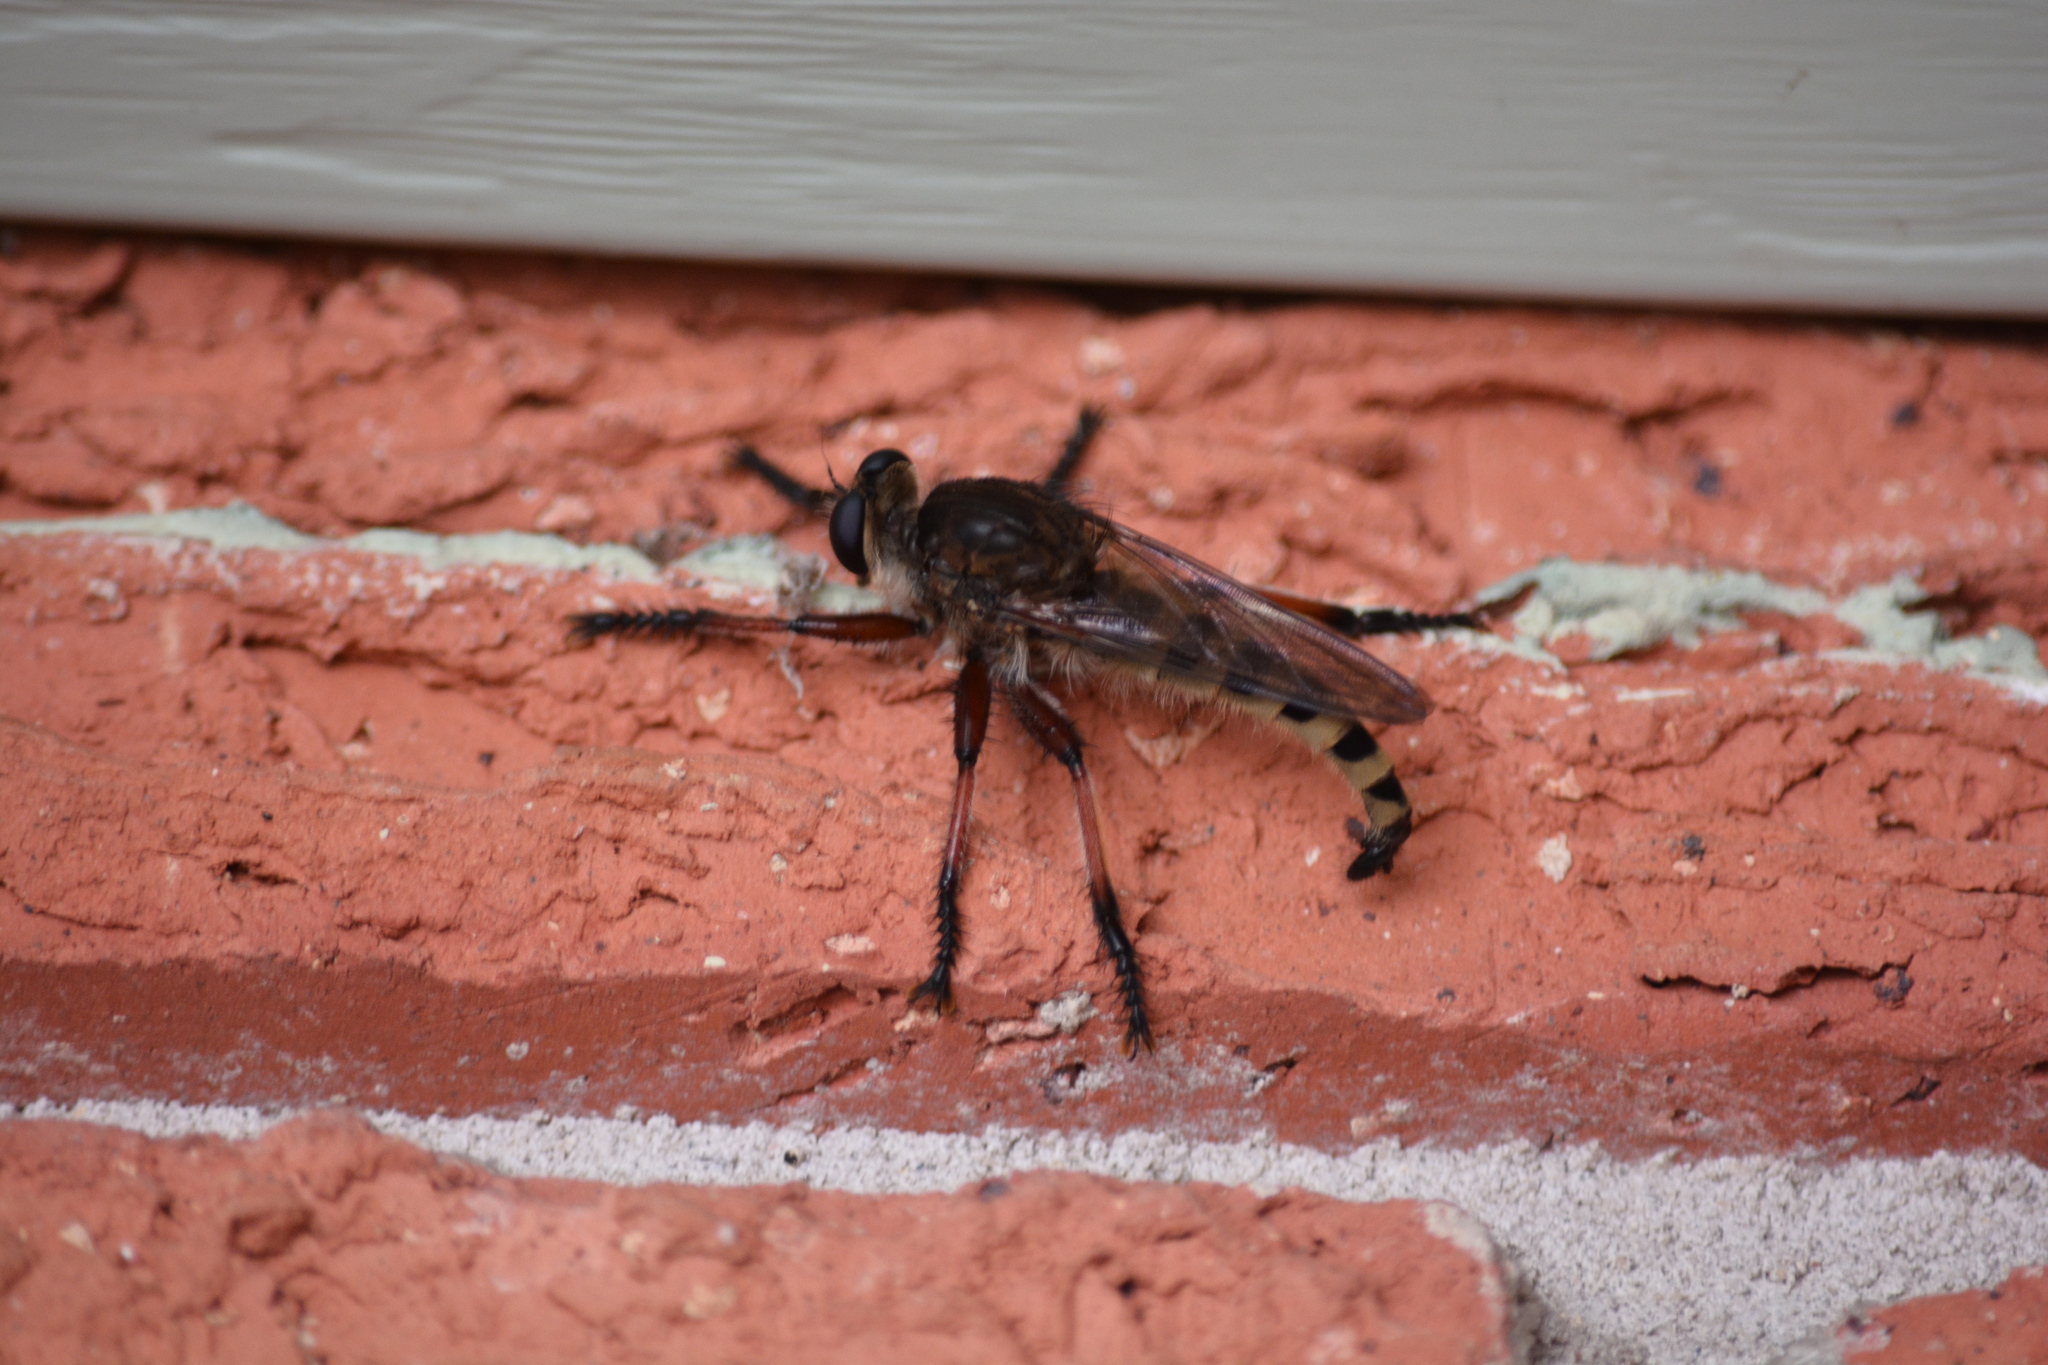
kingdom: Animalia
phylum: Arthropoda
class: Insecta
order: Diptera
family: Asilidae
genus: Promachus
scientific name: Promachus hinei
